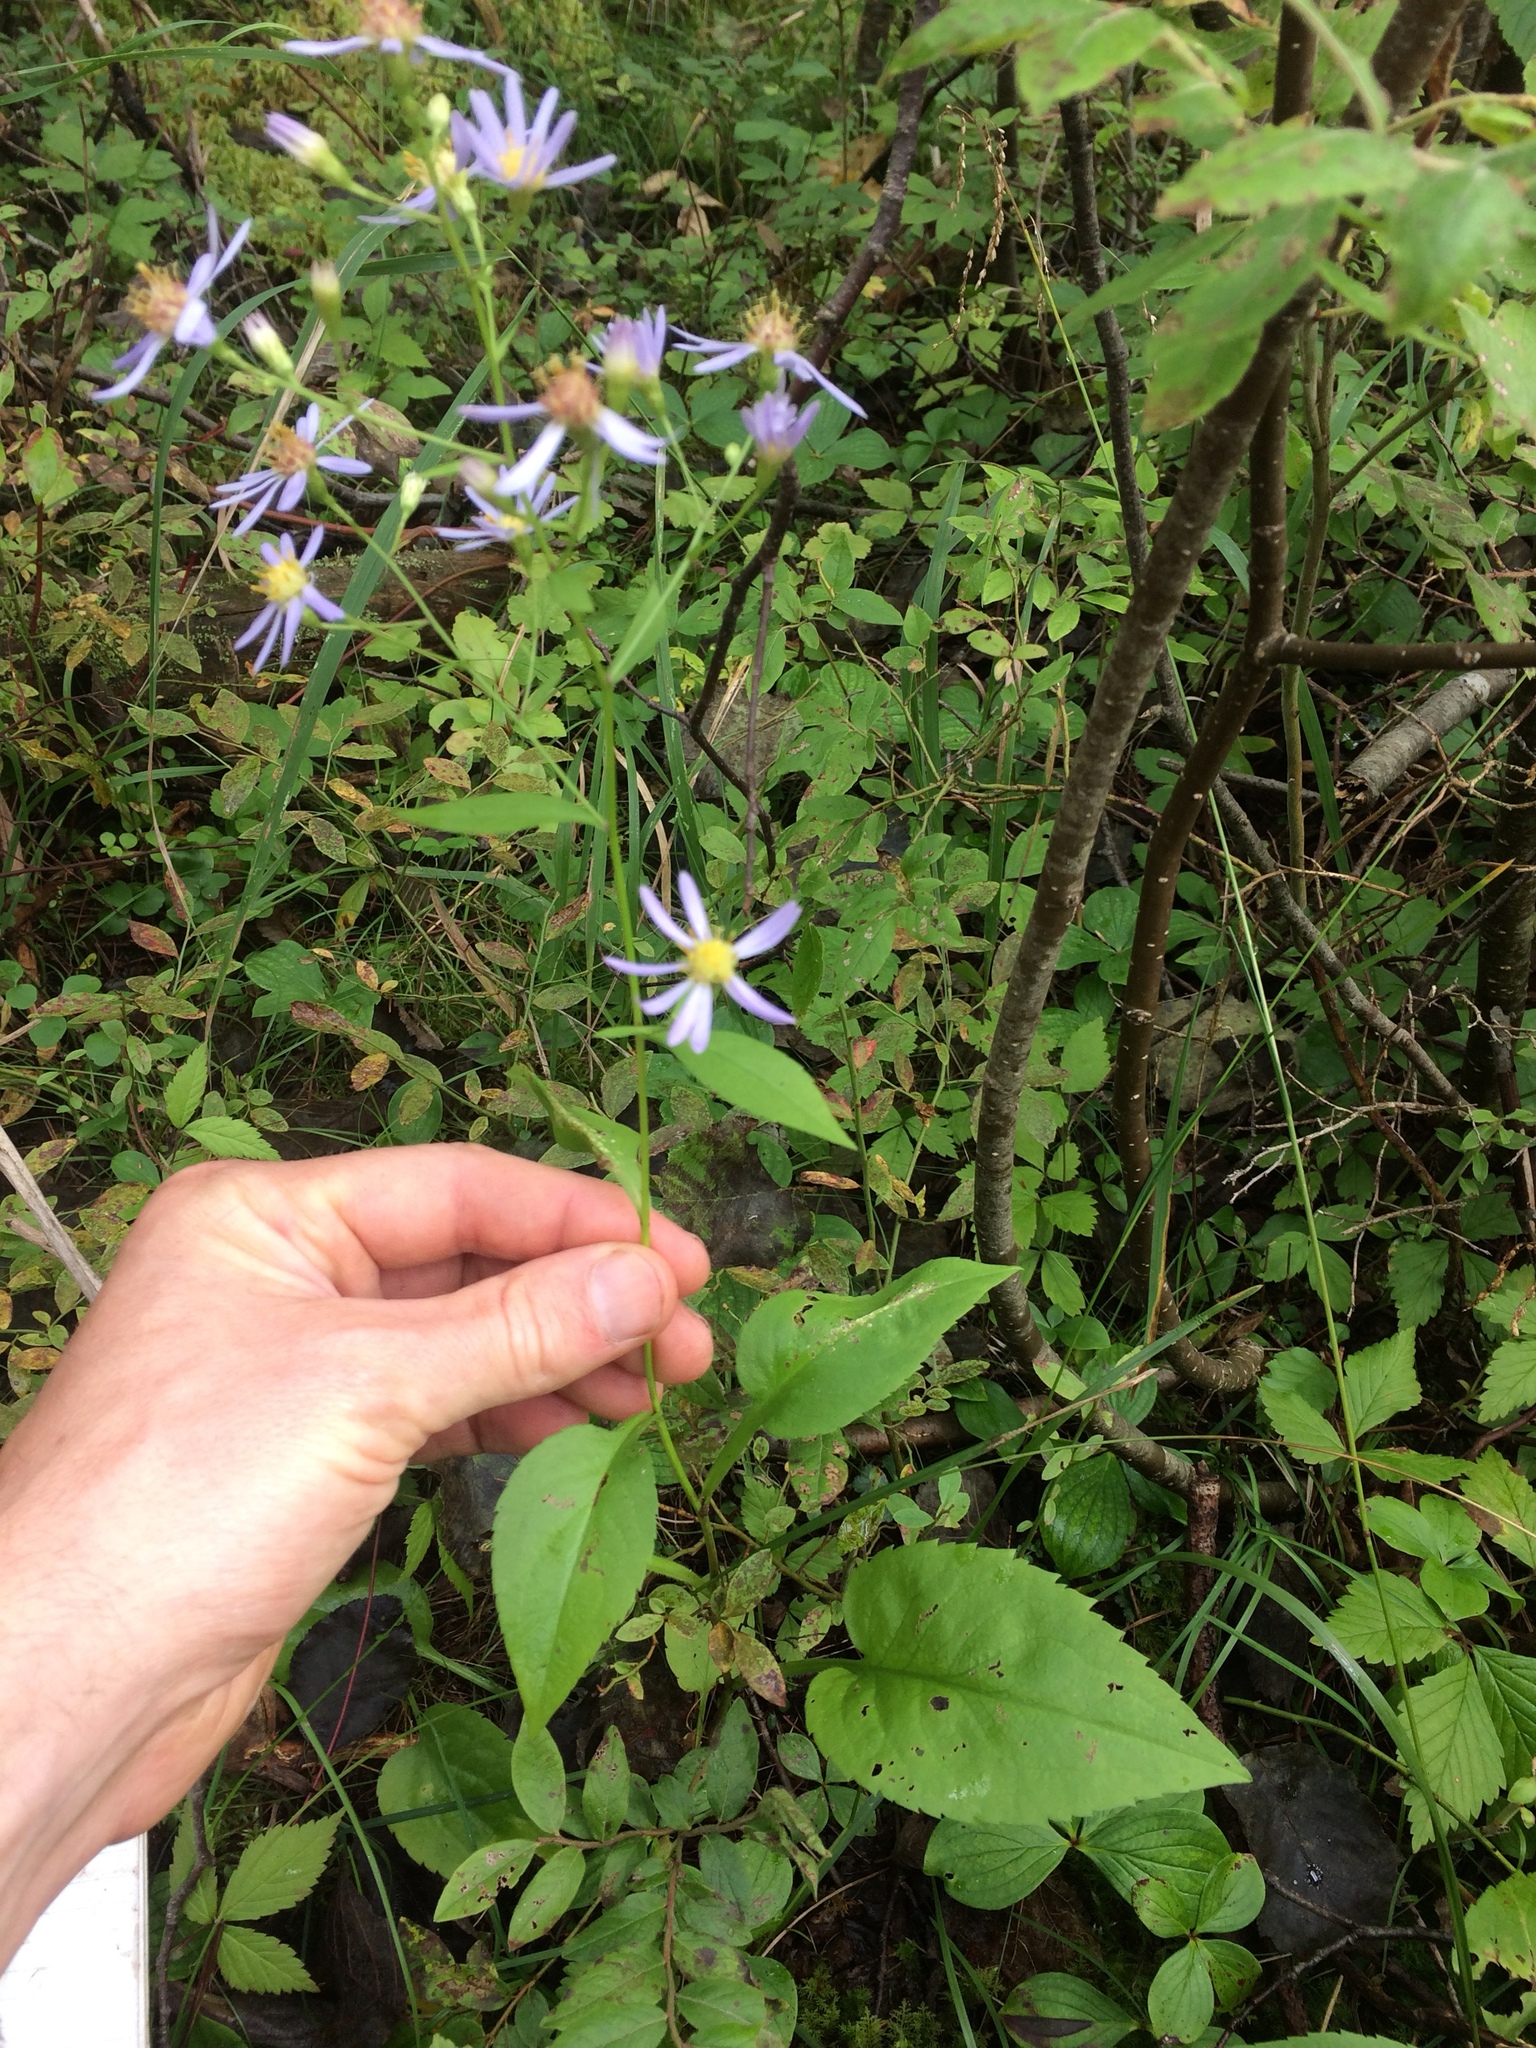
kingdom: Plantae
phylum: Tracheophyta
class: Magnoliopsida
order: Asterales
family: Asteraceae
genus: Eurybia
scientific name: Eurybia macrophylla
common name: Big-leaved aster
